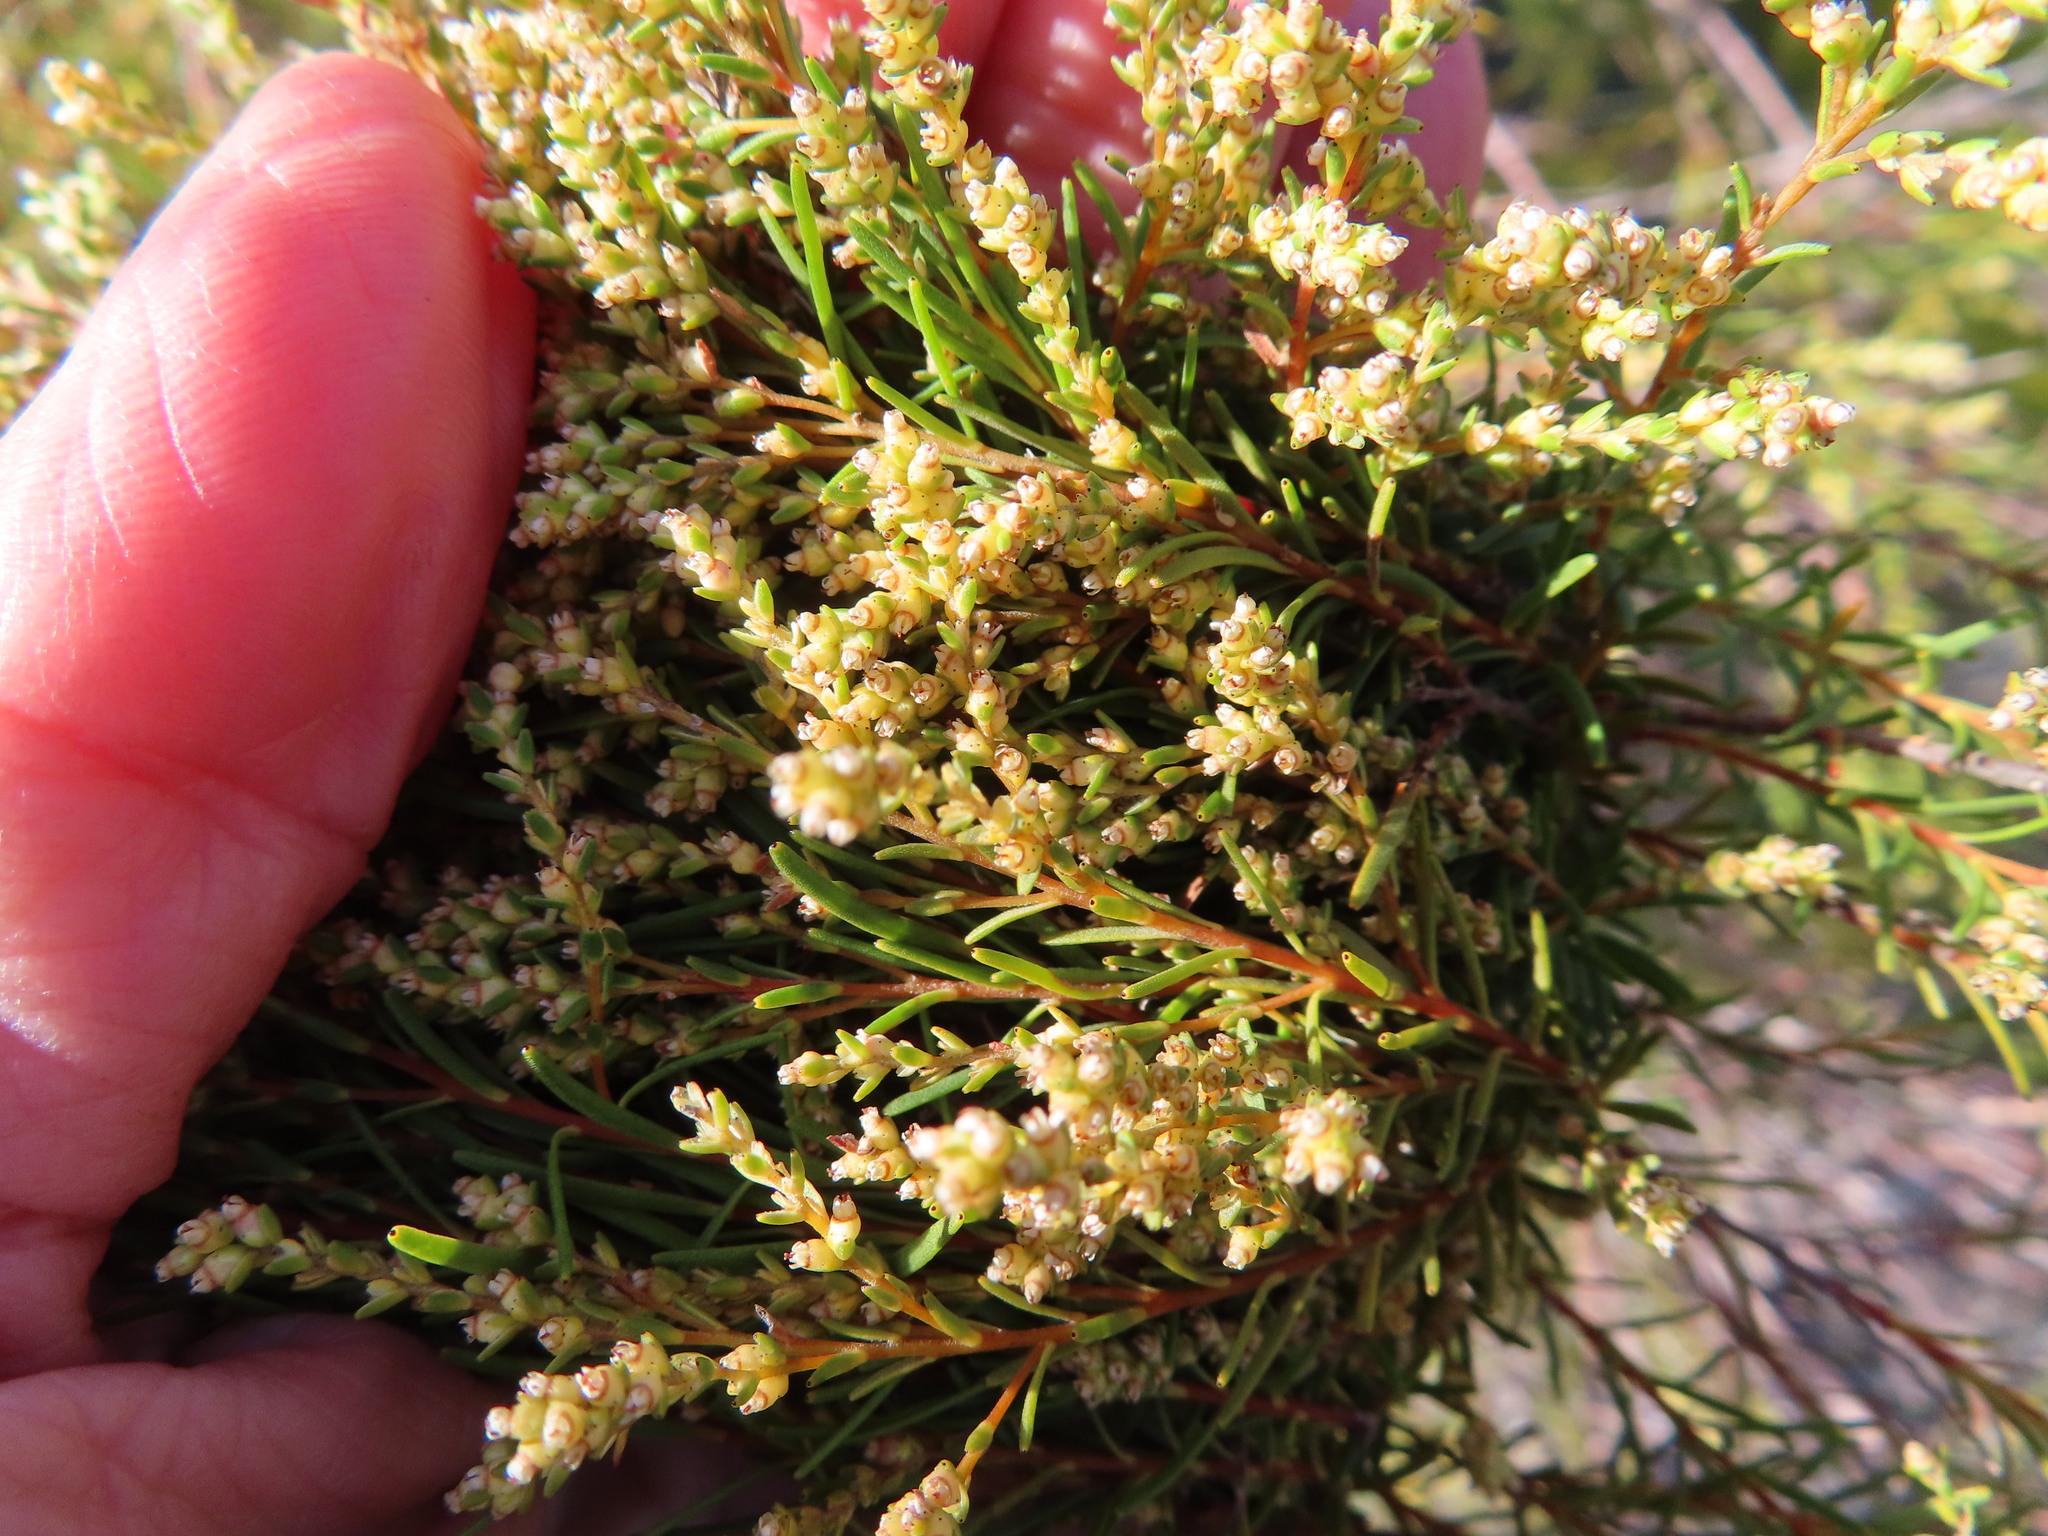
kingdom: Plantae
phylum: Tracheophyta
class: Magnoliopsida
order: Bruniales
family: Bruniaceae
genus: Brunia
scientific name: Brunia africana
